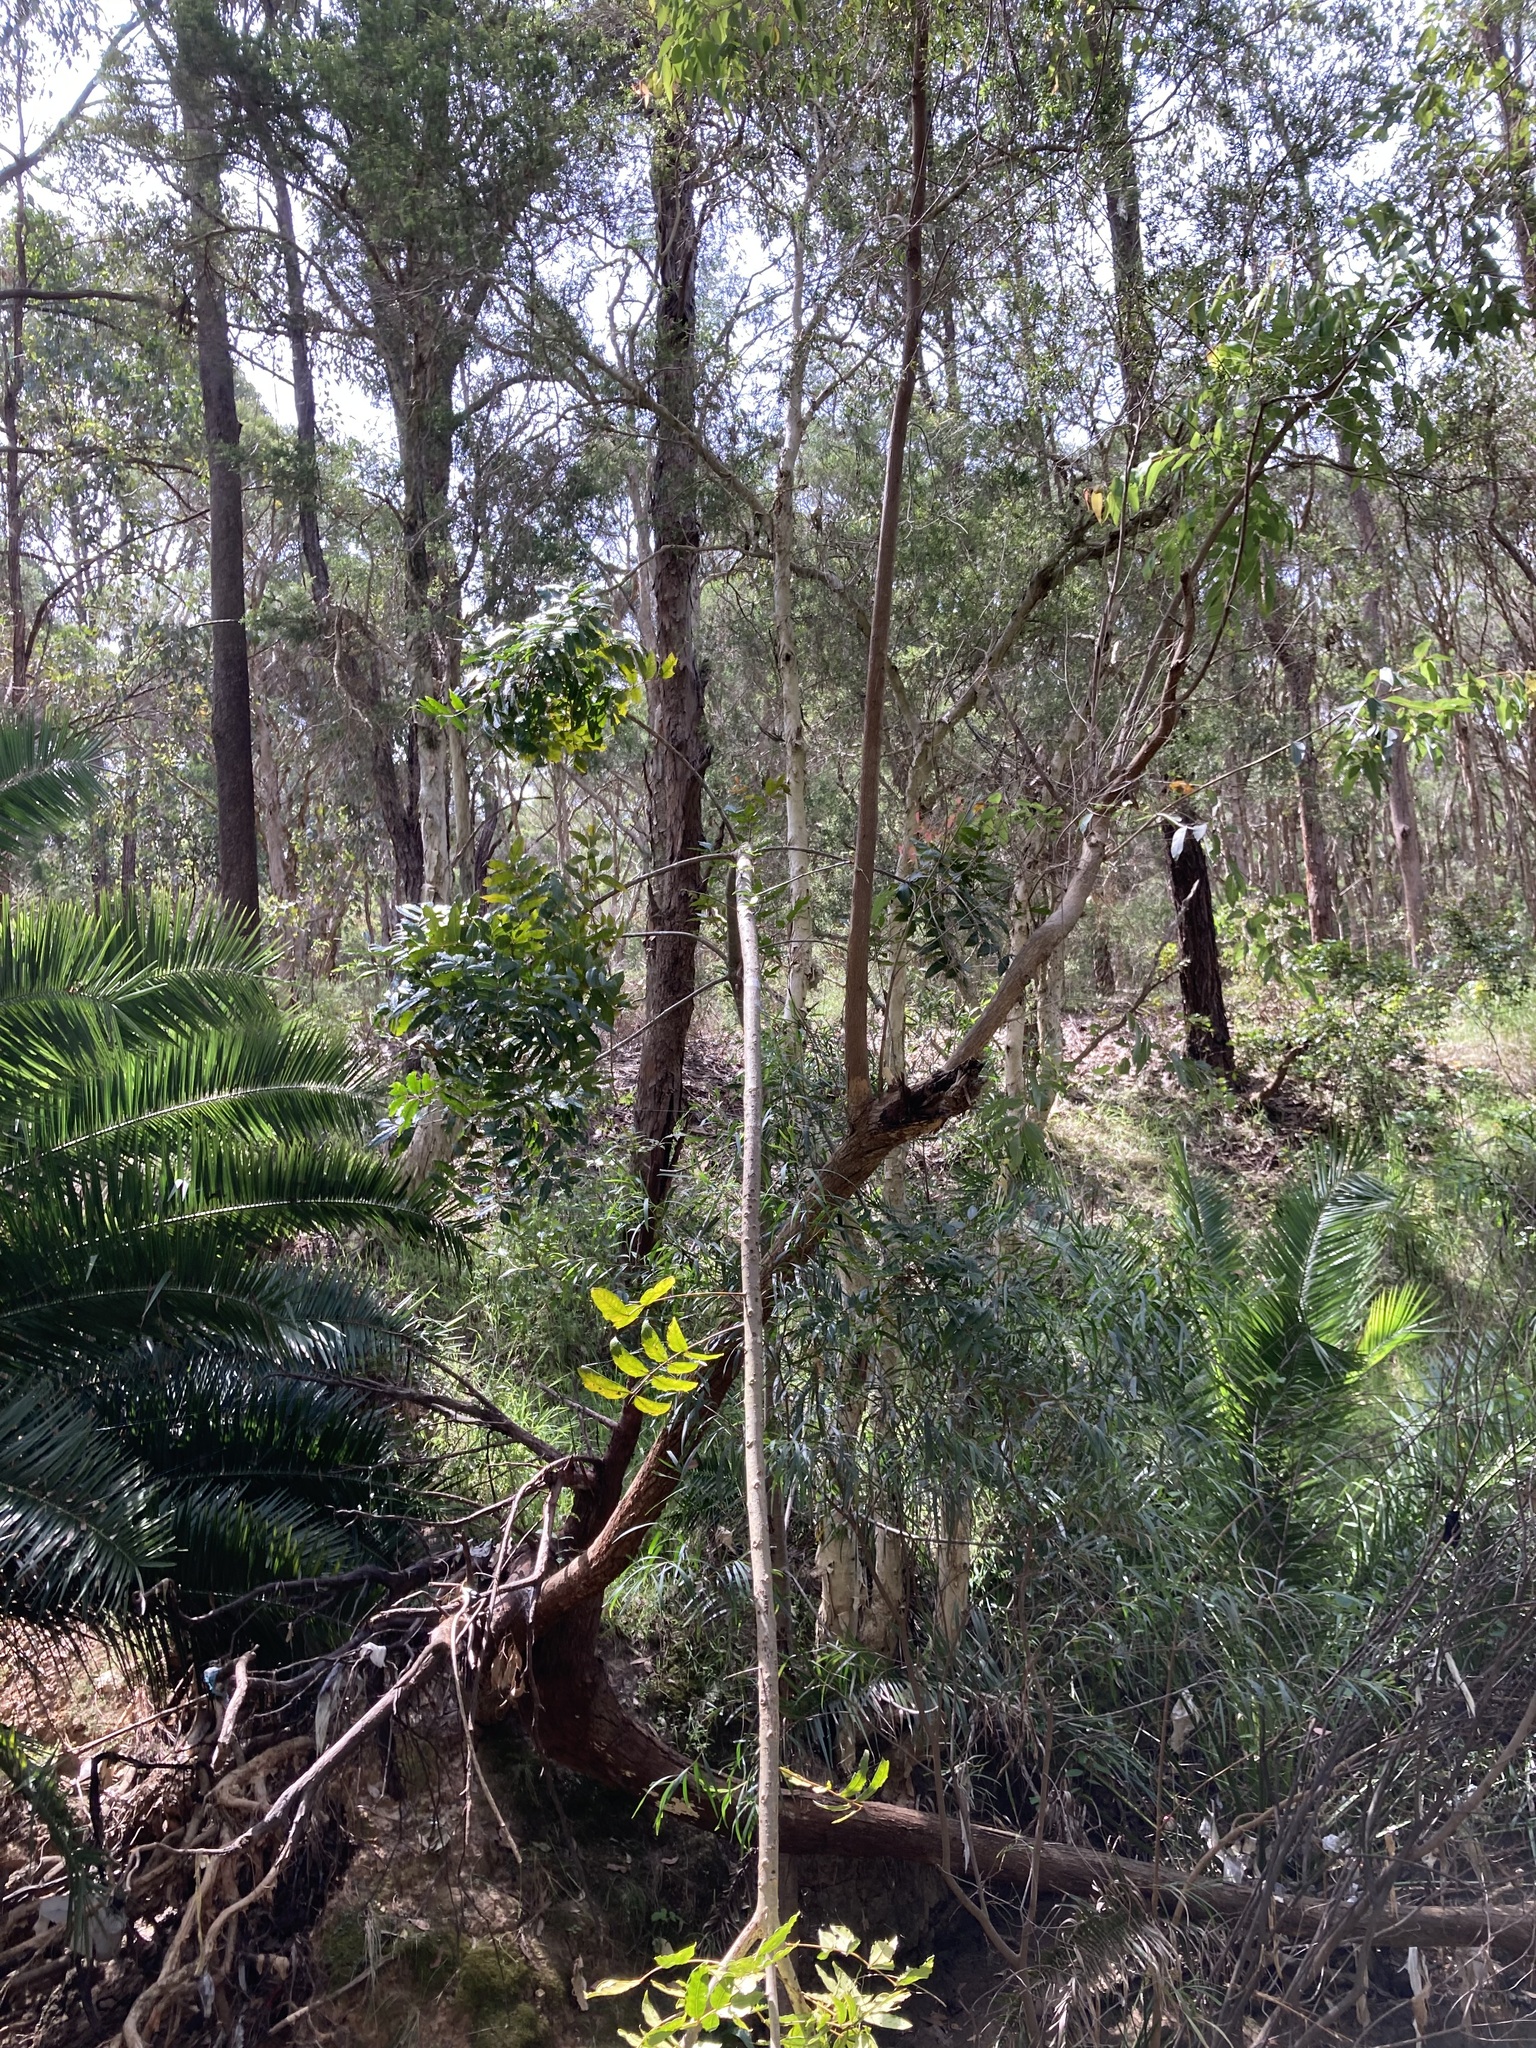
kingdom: Plantae
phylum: Tracheophyta
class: Magnoliopsida
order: Sapindales
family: Anacardiaceae
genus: Harpephyllum
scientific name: Harpephyllum caffrum
